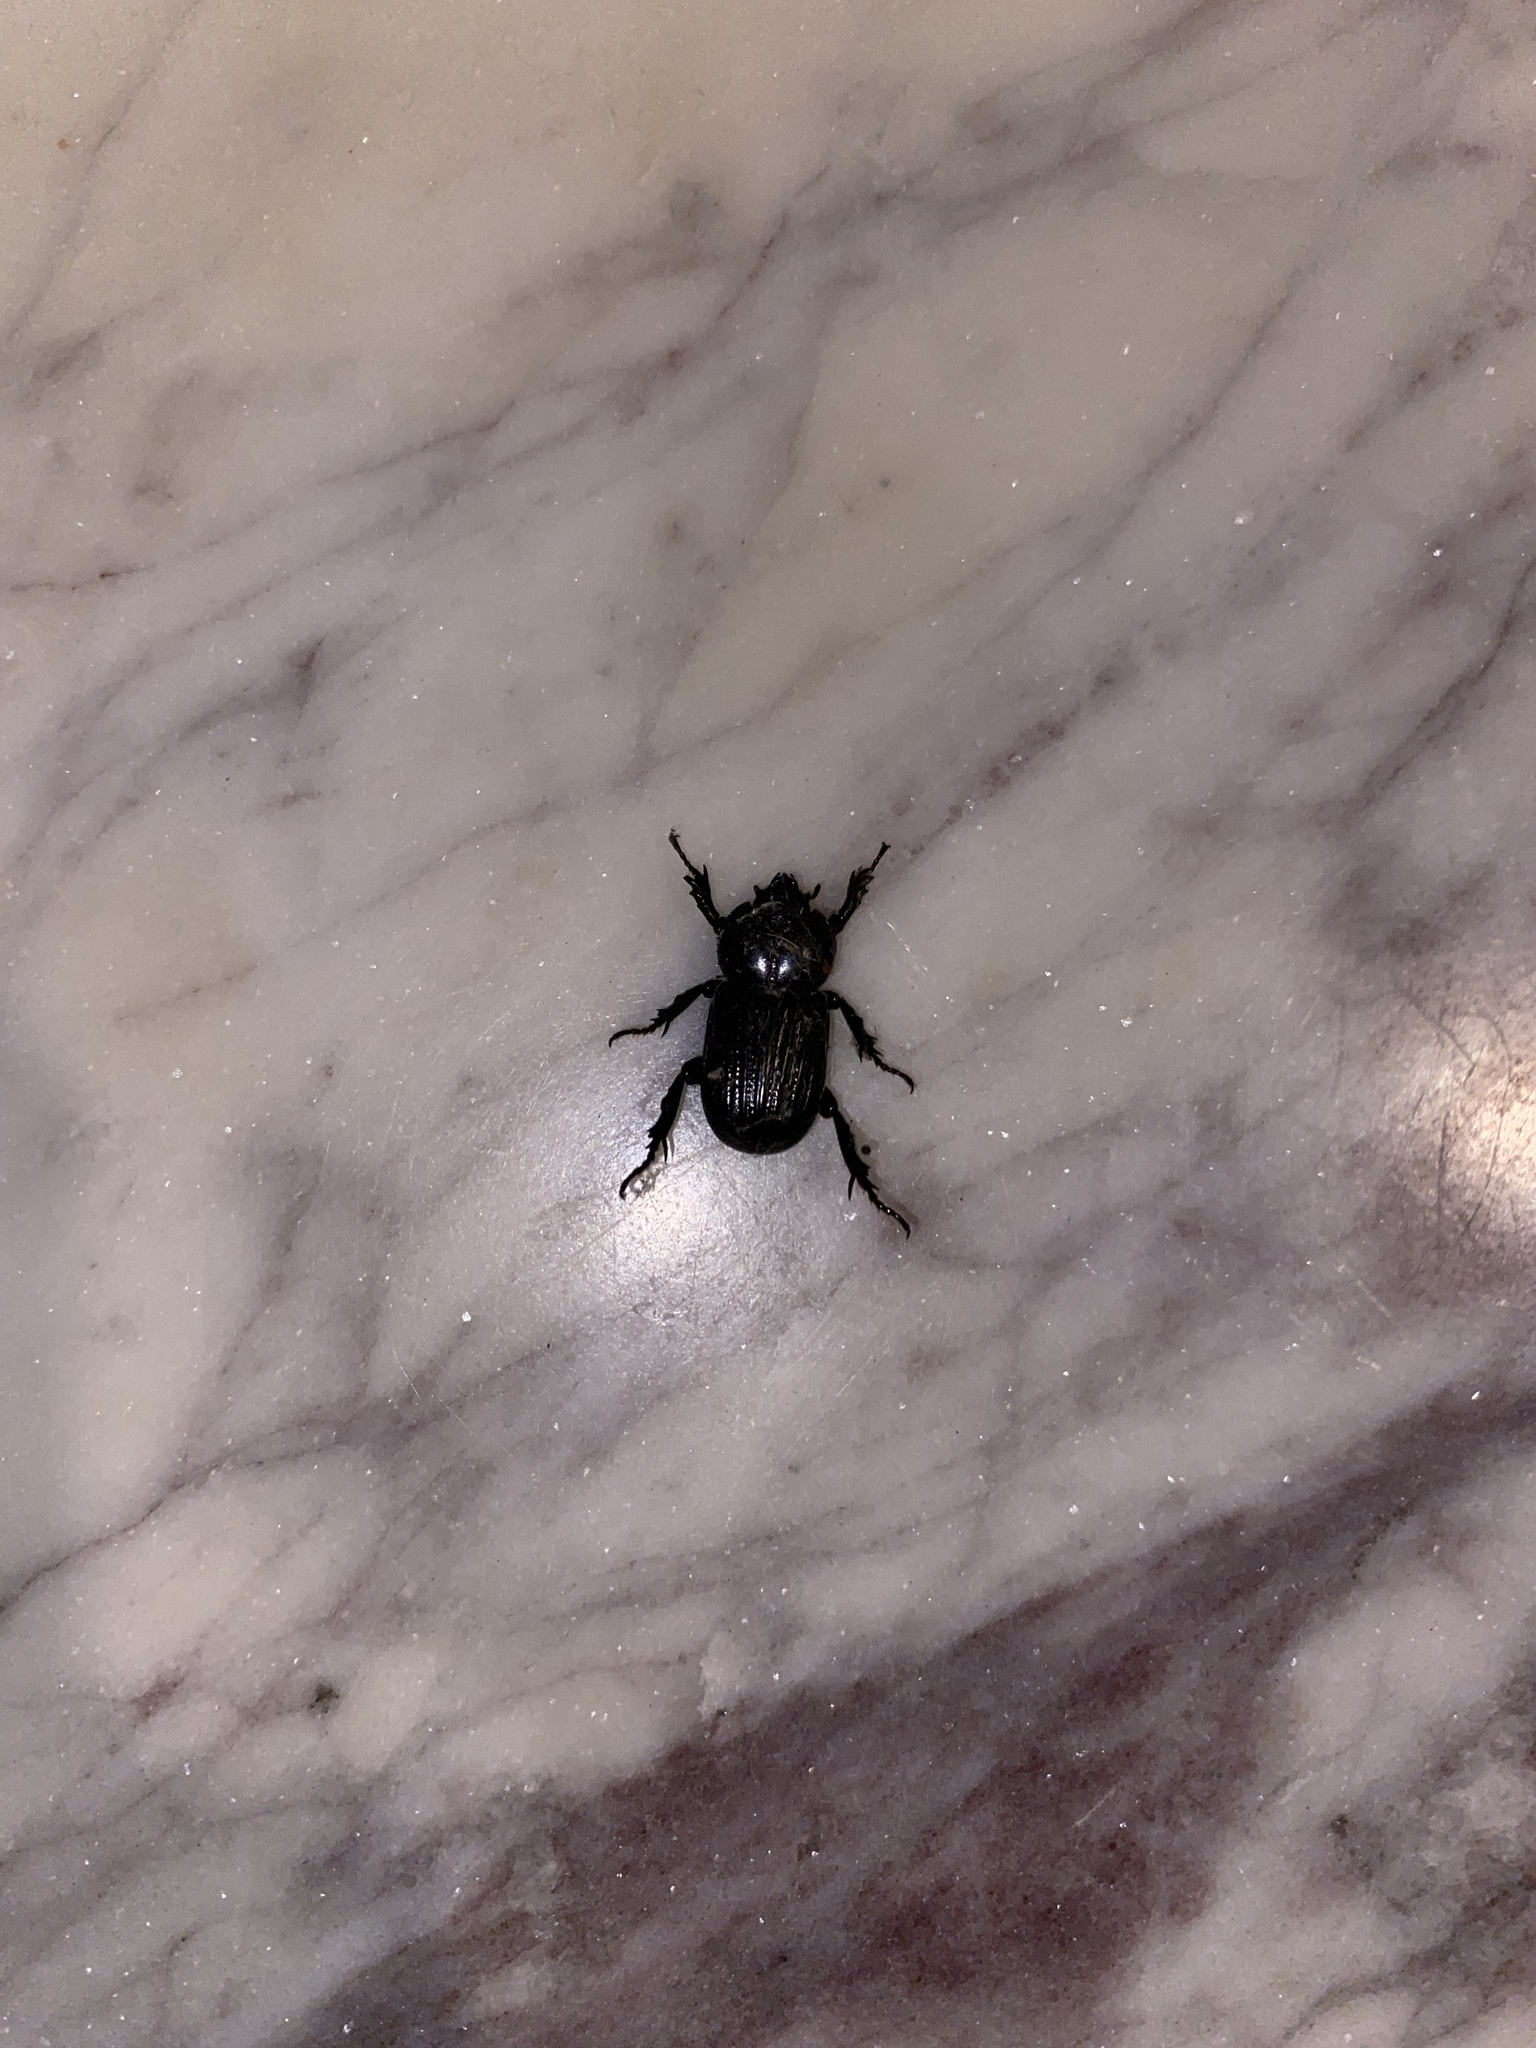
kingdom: Animalia
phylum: Arthropoda
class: Insecta
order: Coleoptera
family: Scarabaeidae
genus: Phileurus
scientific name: Phileurus valgus
